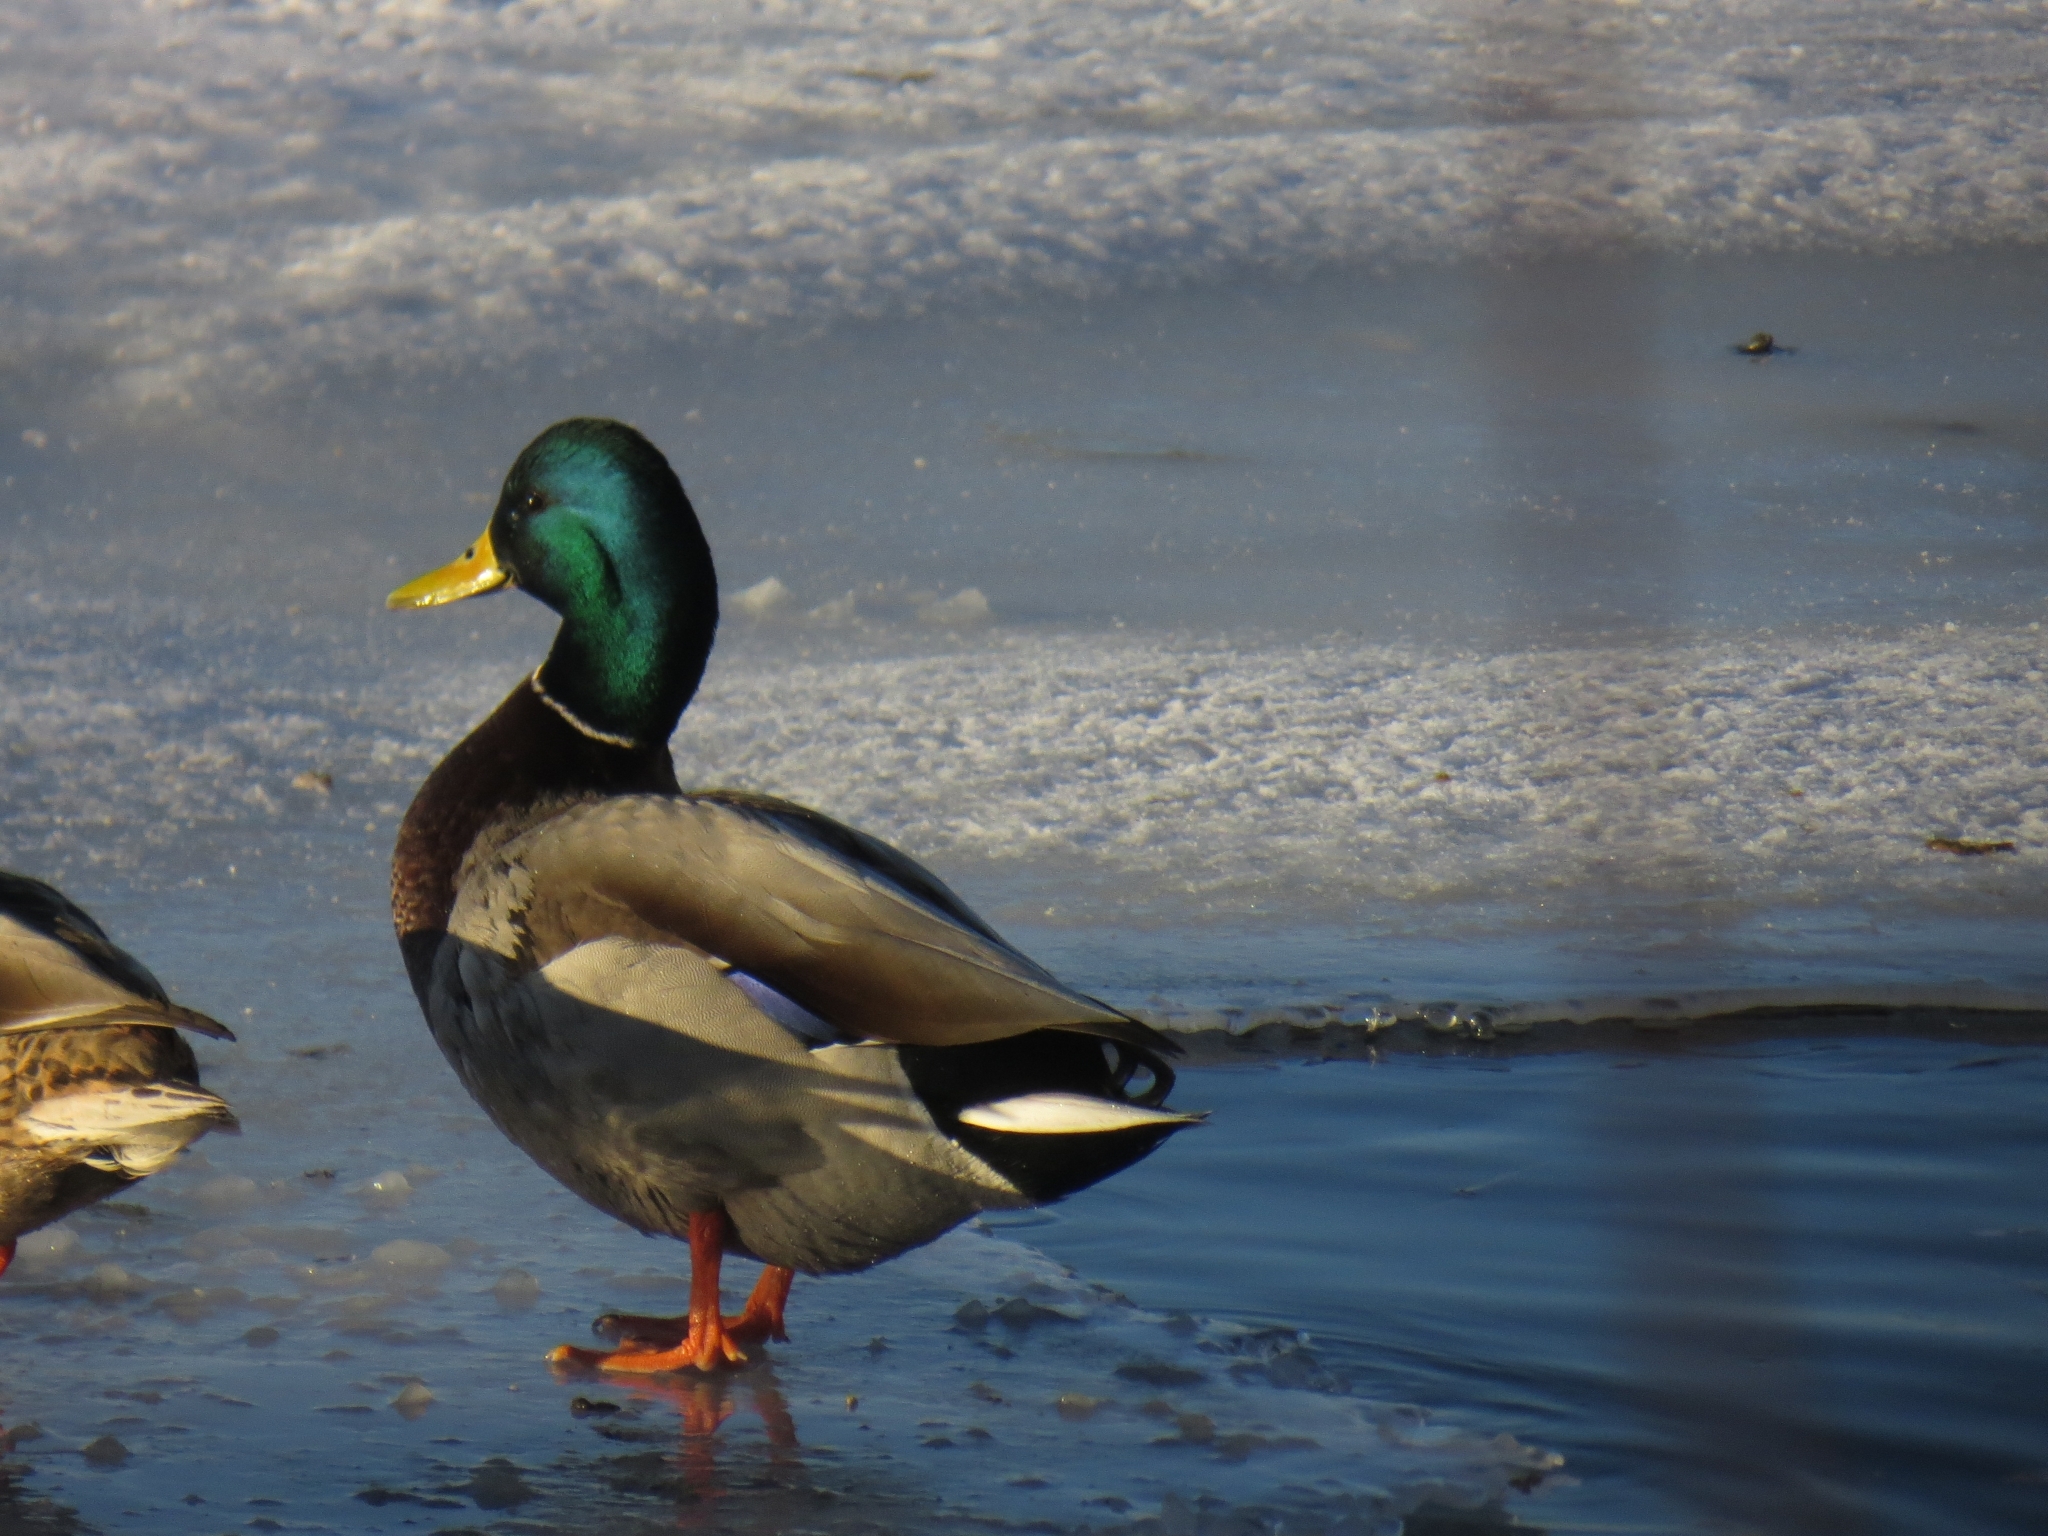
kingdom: Animalia
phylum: Chordata
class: Aves
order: Anseriformes
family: Anatidae
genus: Anas
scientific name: Anas platyrhynchos
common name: Mallard
